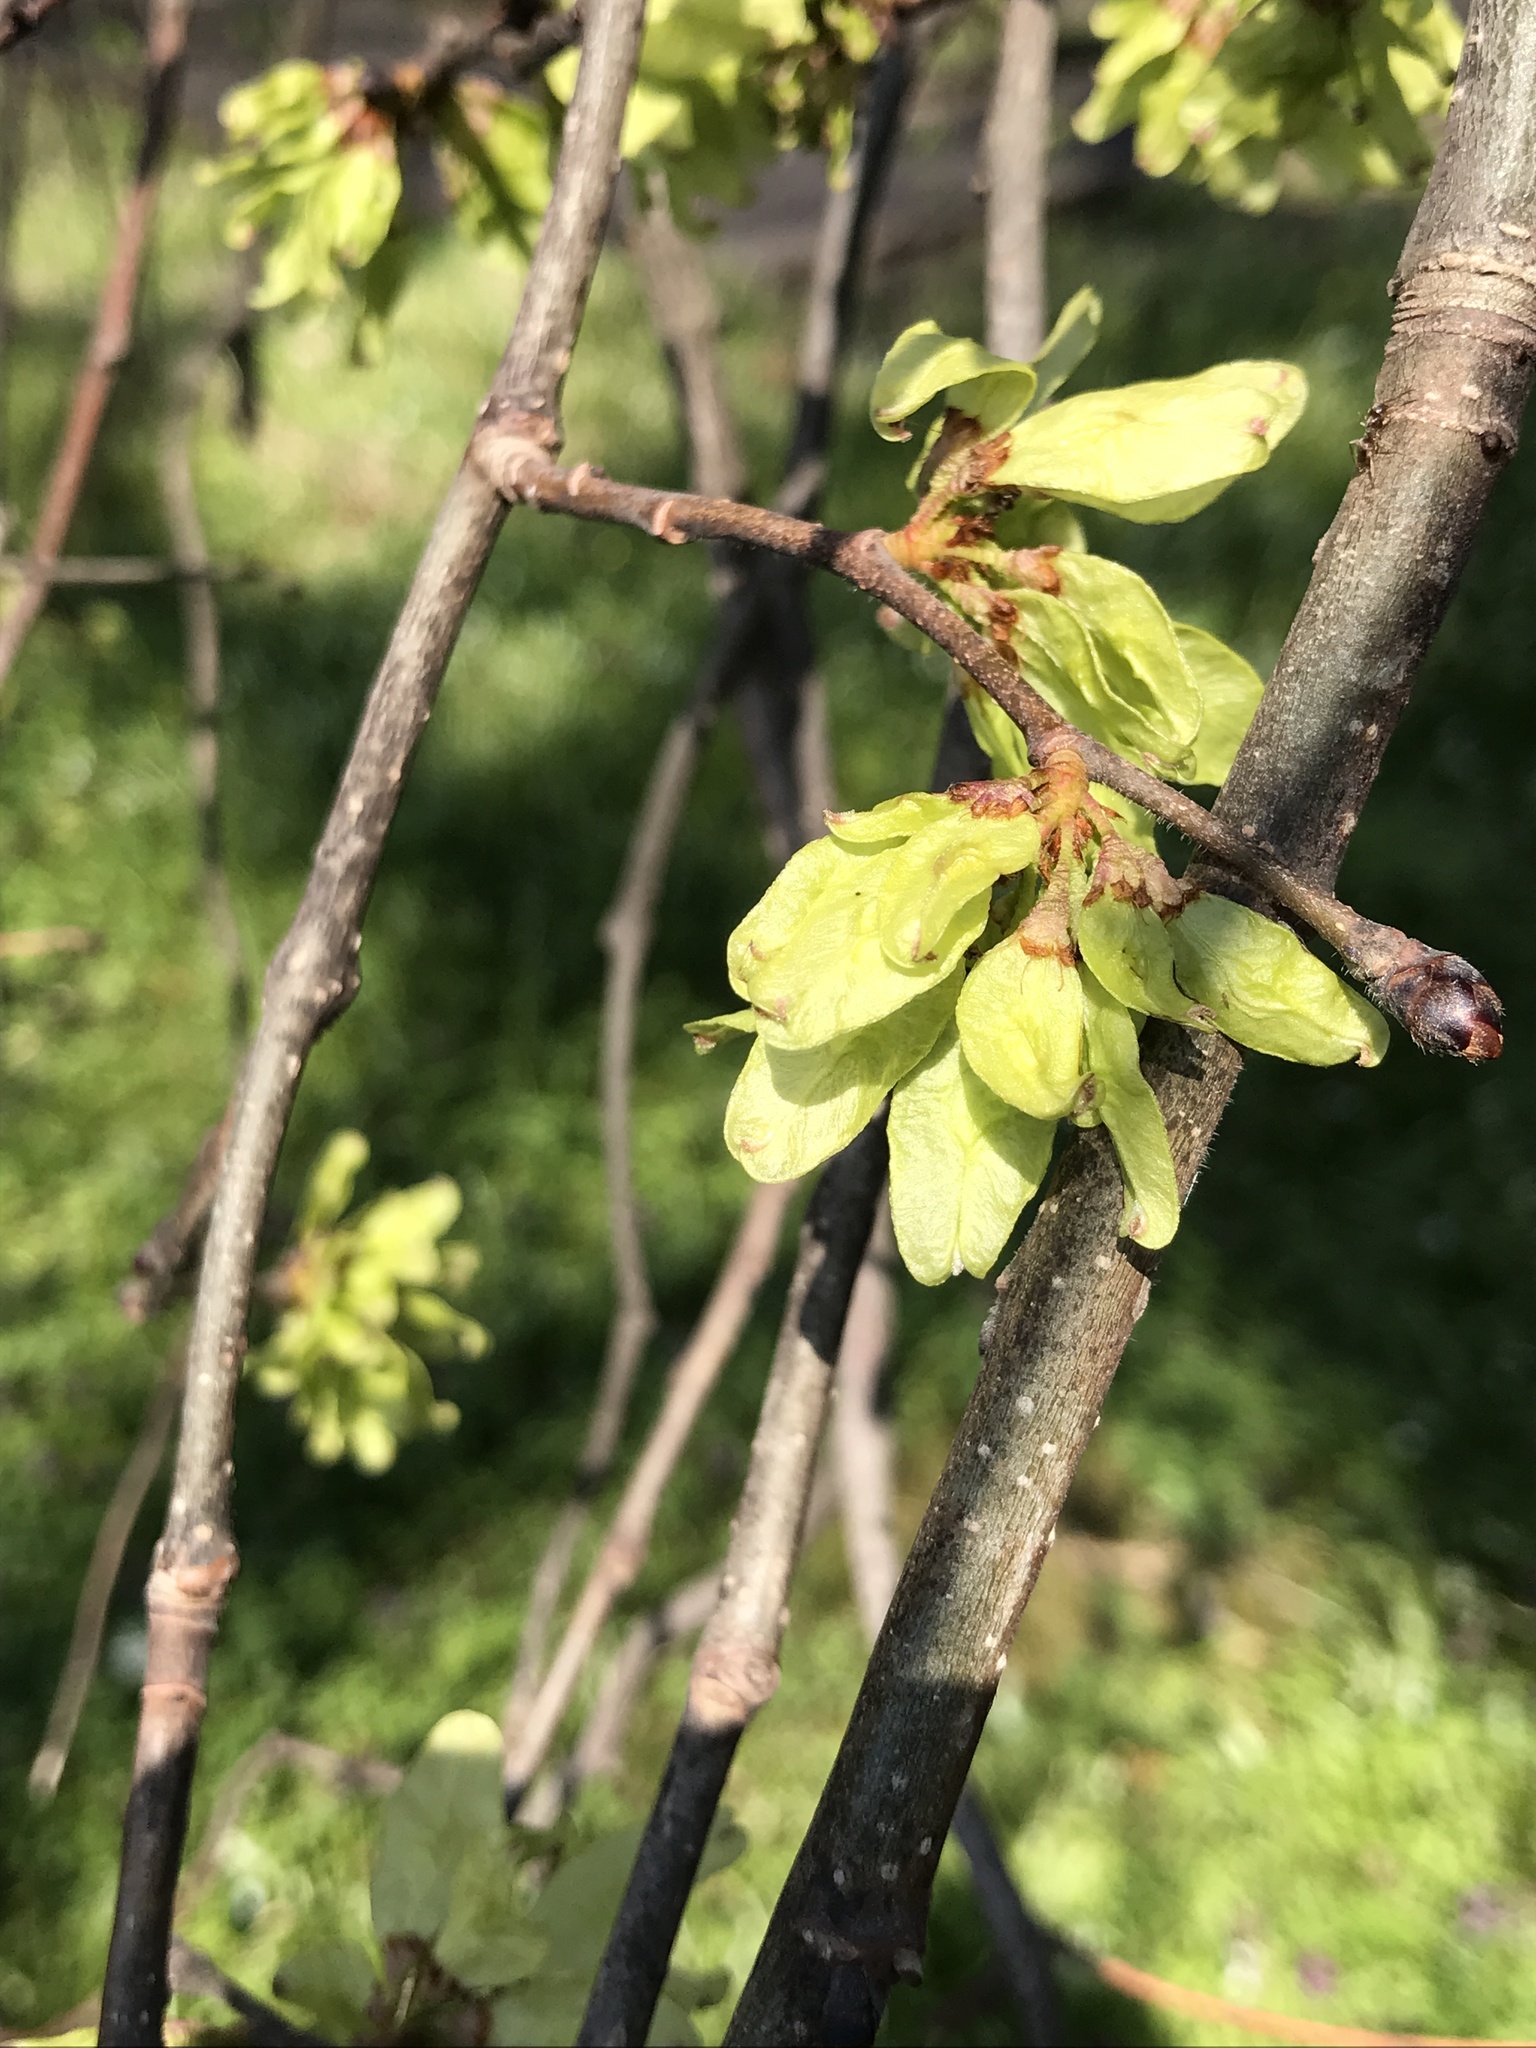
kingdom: Plantae
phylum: Tracheophyta
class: Magnoliopsida
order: Rosales
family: Ulmaceae
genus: Ulmus
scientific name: Ulmus minor
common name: Small-leaved elm
